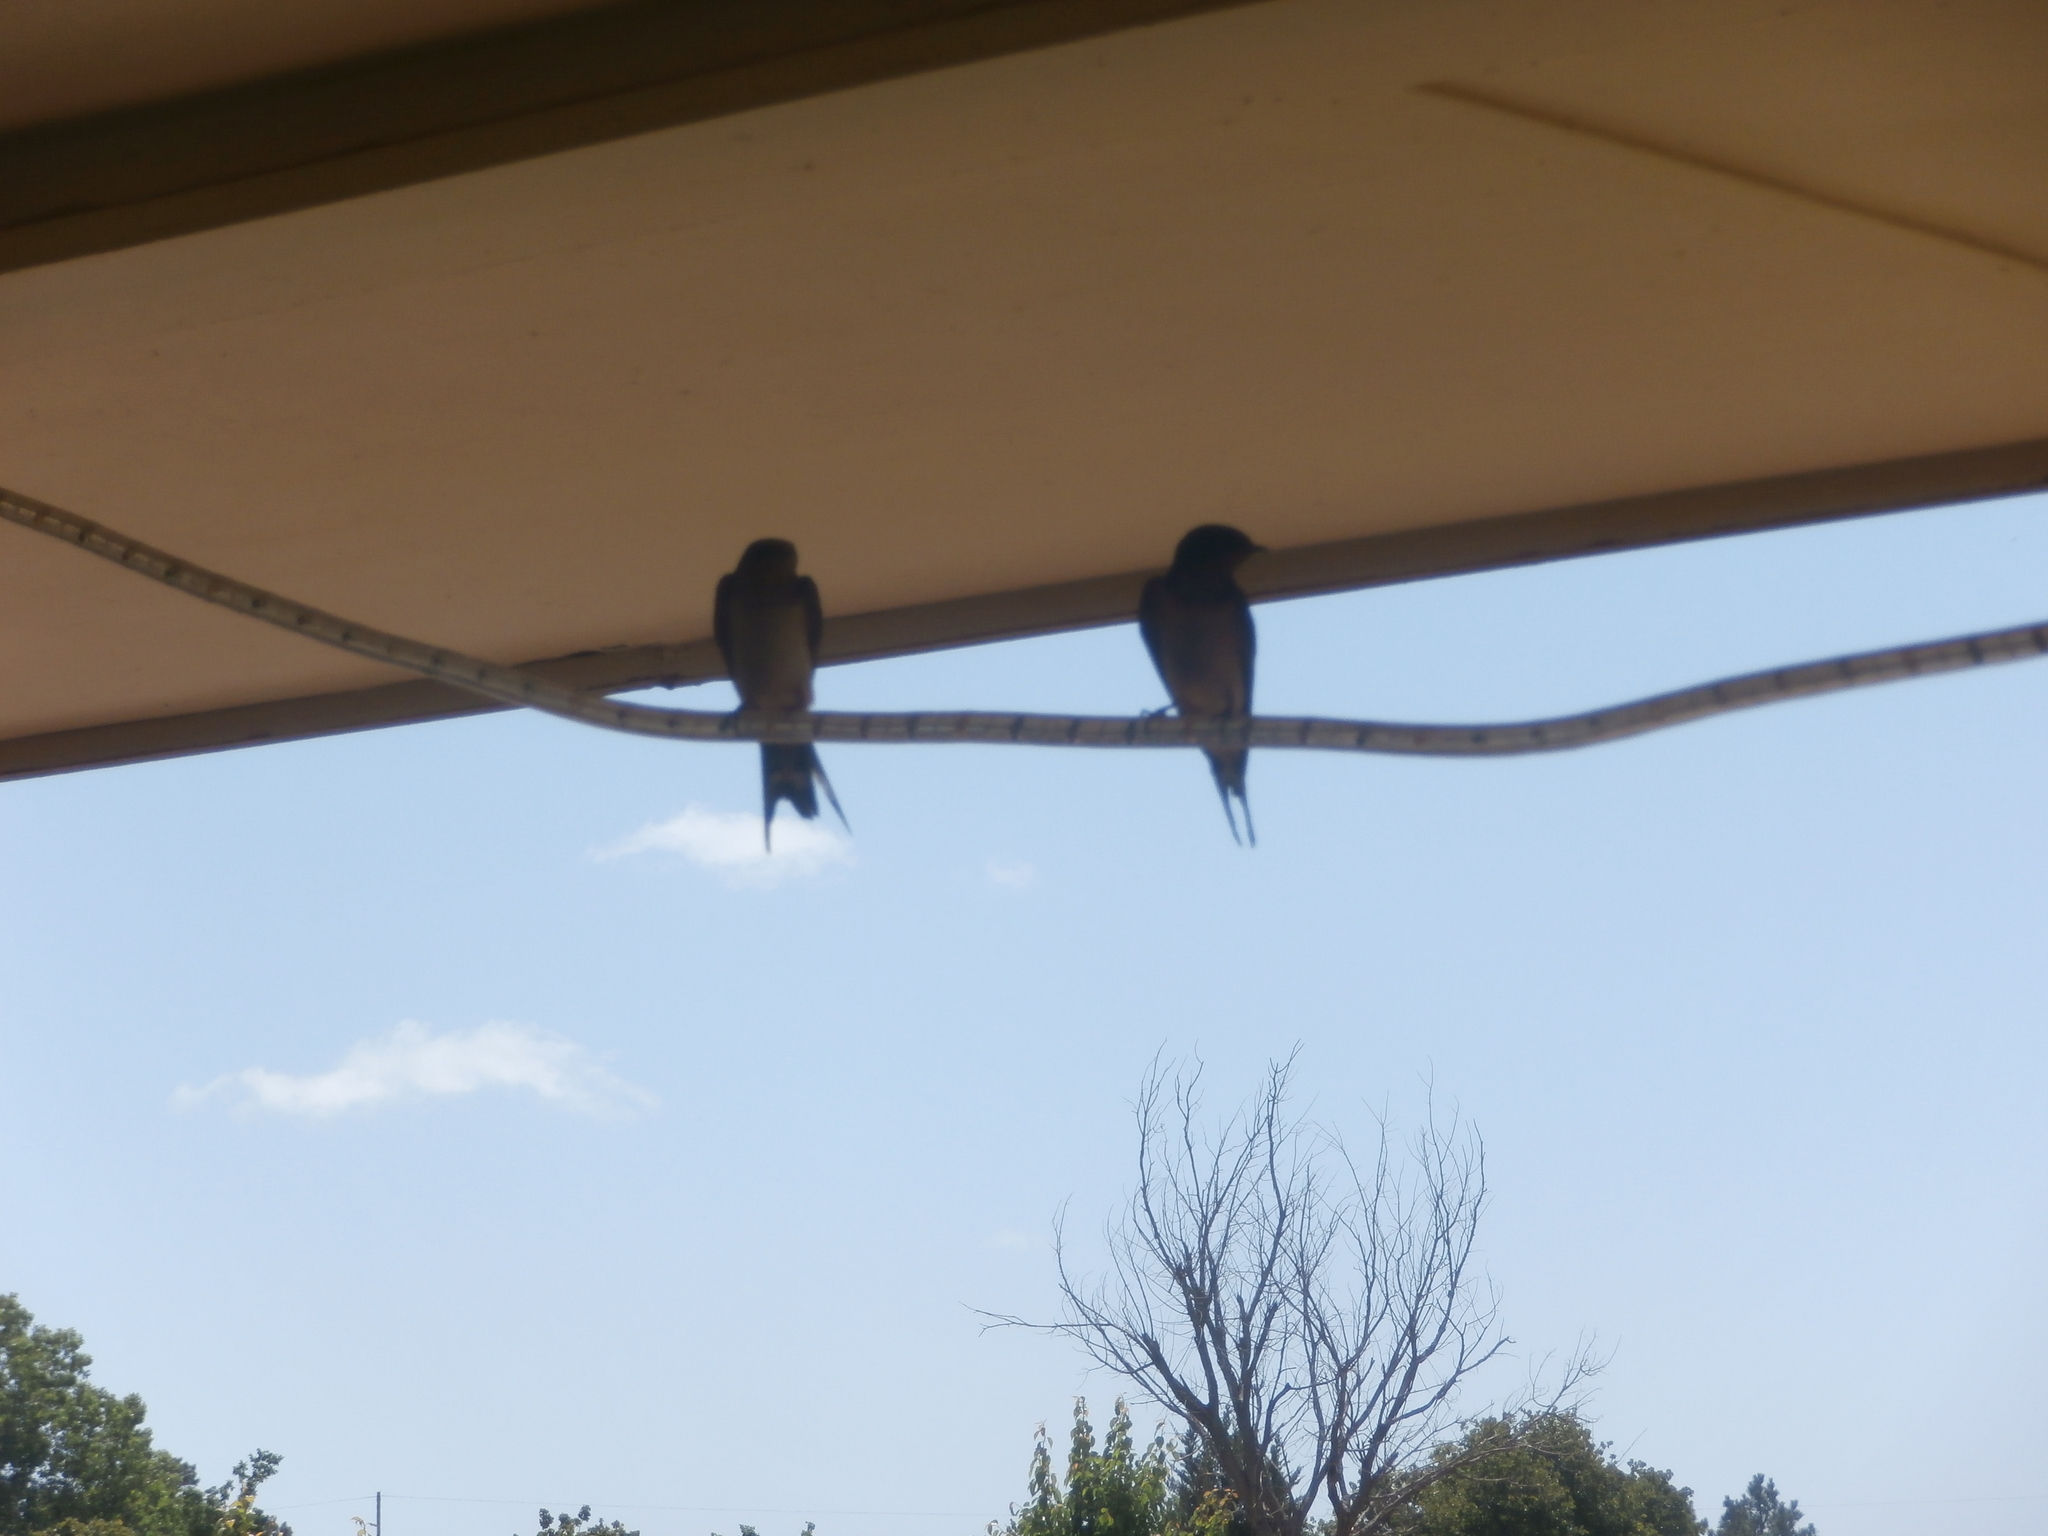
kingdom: Animalia
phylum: Chordata
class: Aves
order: Passeriformes
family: Hirundinidae
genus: Hirundo
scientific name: Hirundo rustica
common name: Barn swallow
